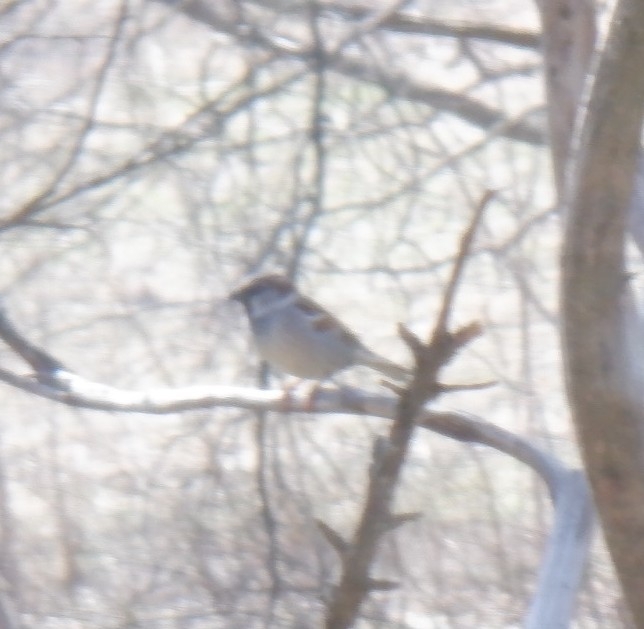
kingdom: Animalia
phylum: Chordata
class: Aves
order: Passeriformes
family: Passeridae
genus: Passer
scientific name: Passer domesticus
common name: House sparrow
